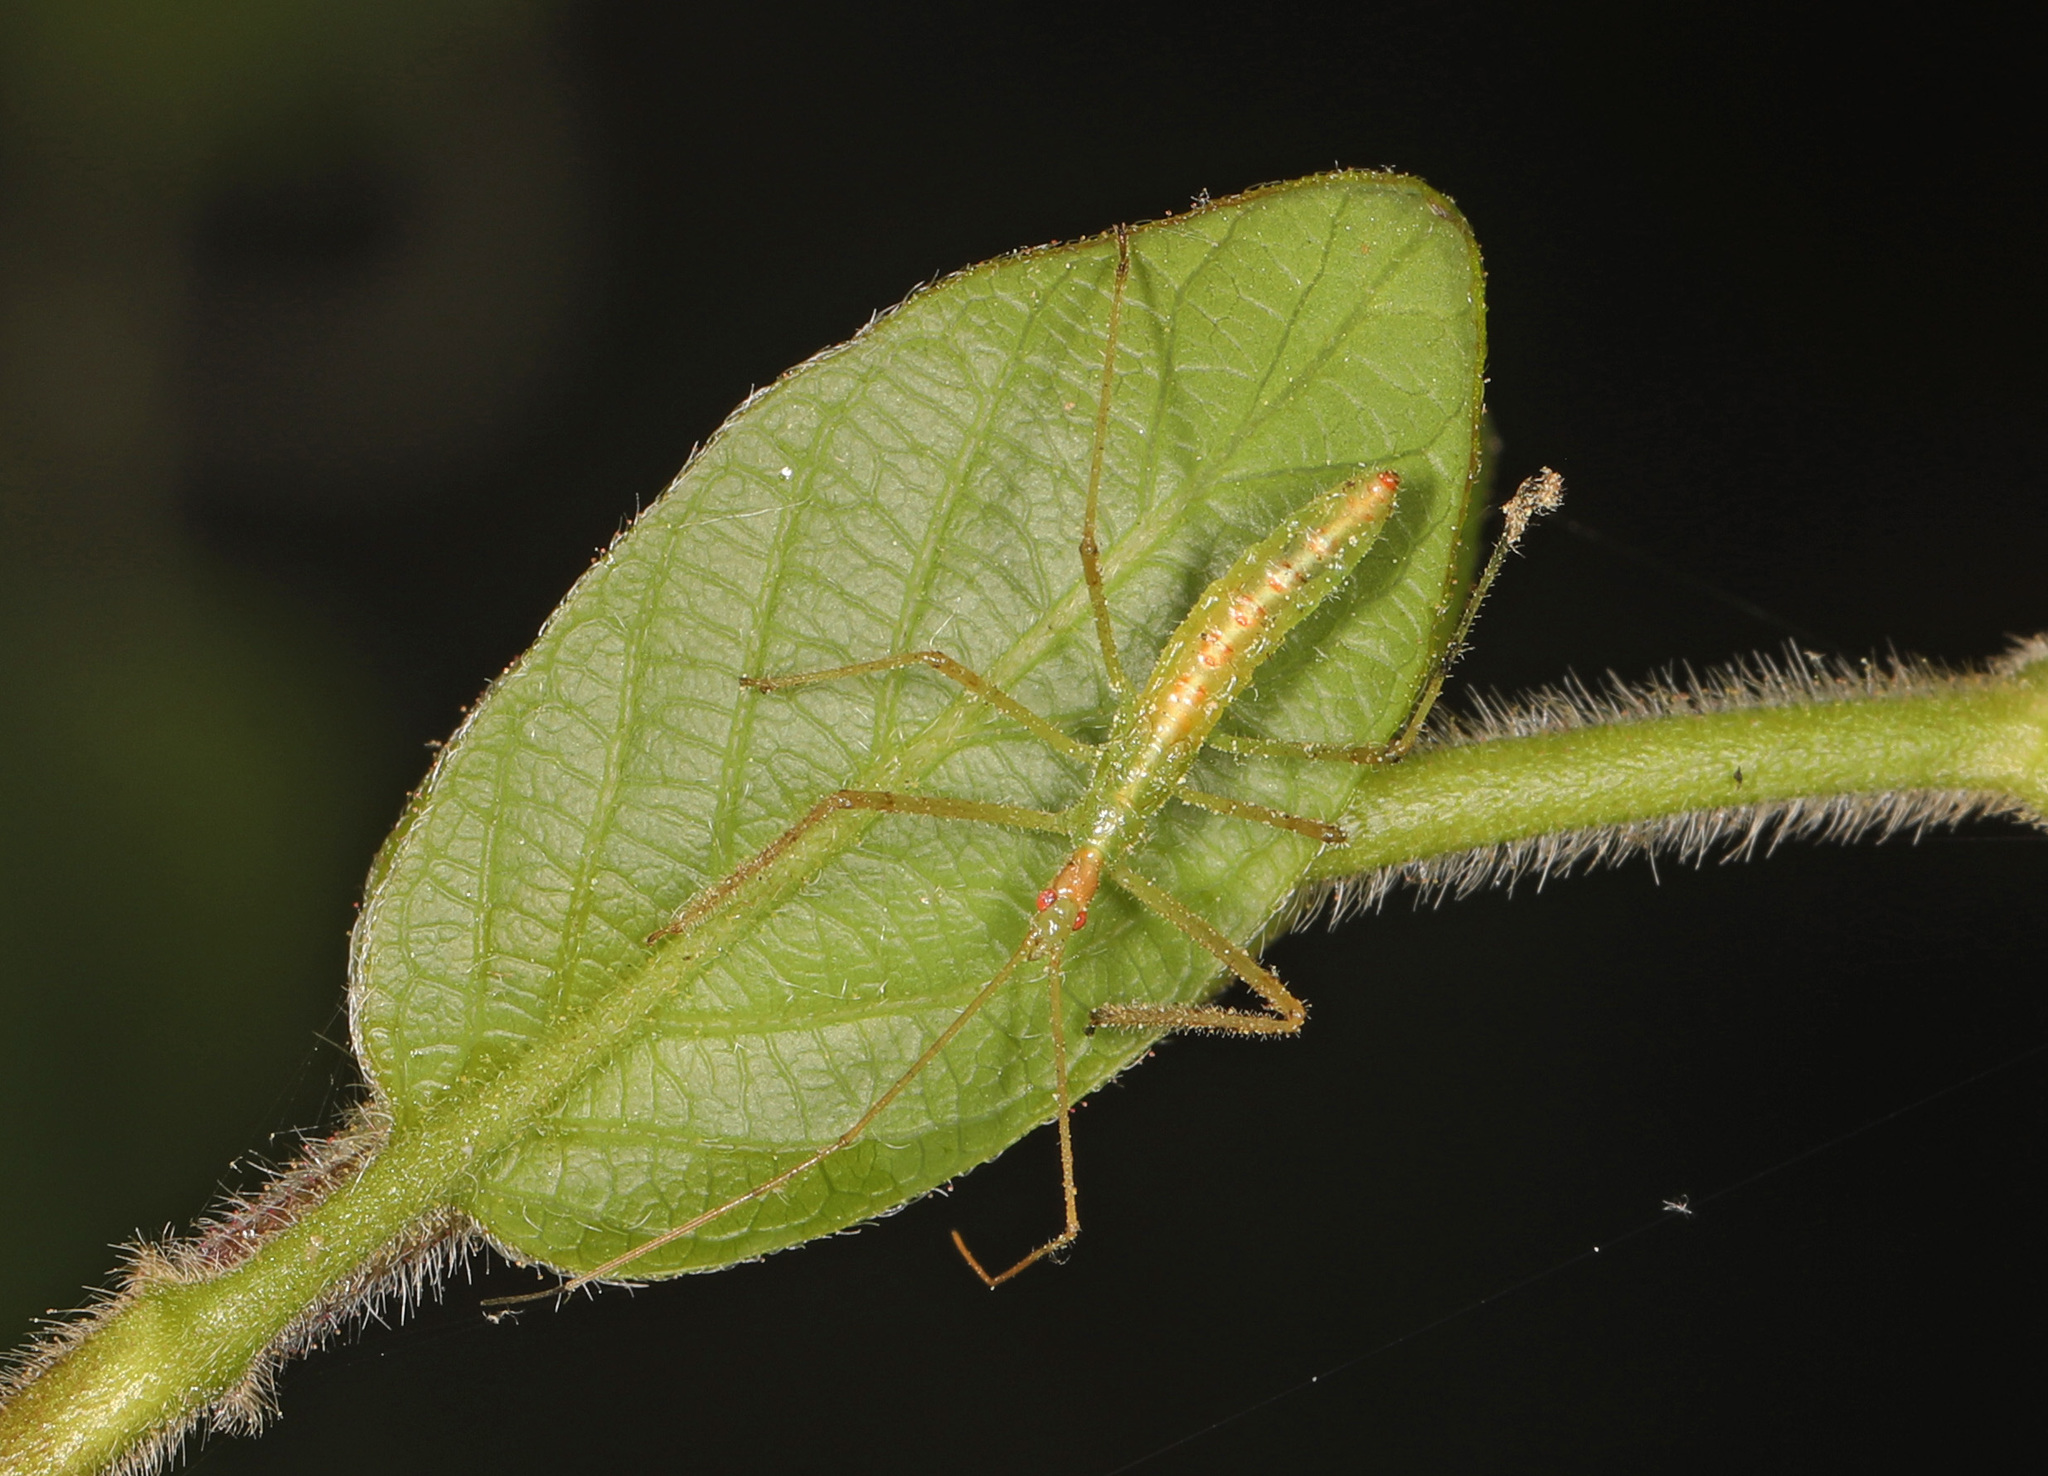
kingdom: Animalia
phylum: Arthropoda
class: Insecta
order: Hemiptera
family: Reduviidae
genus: Zelus
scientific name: Zelus luridus
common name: Pale green assassin bug
